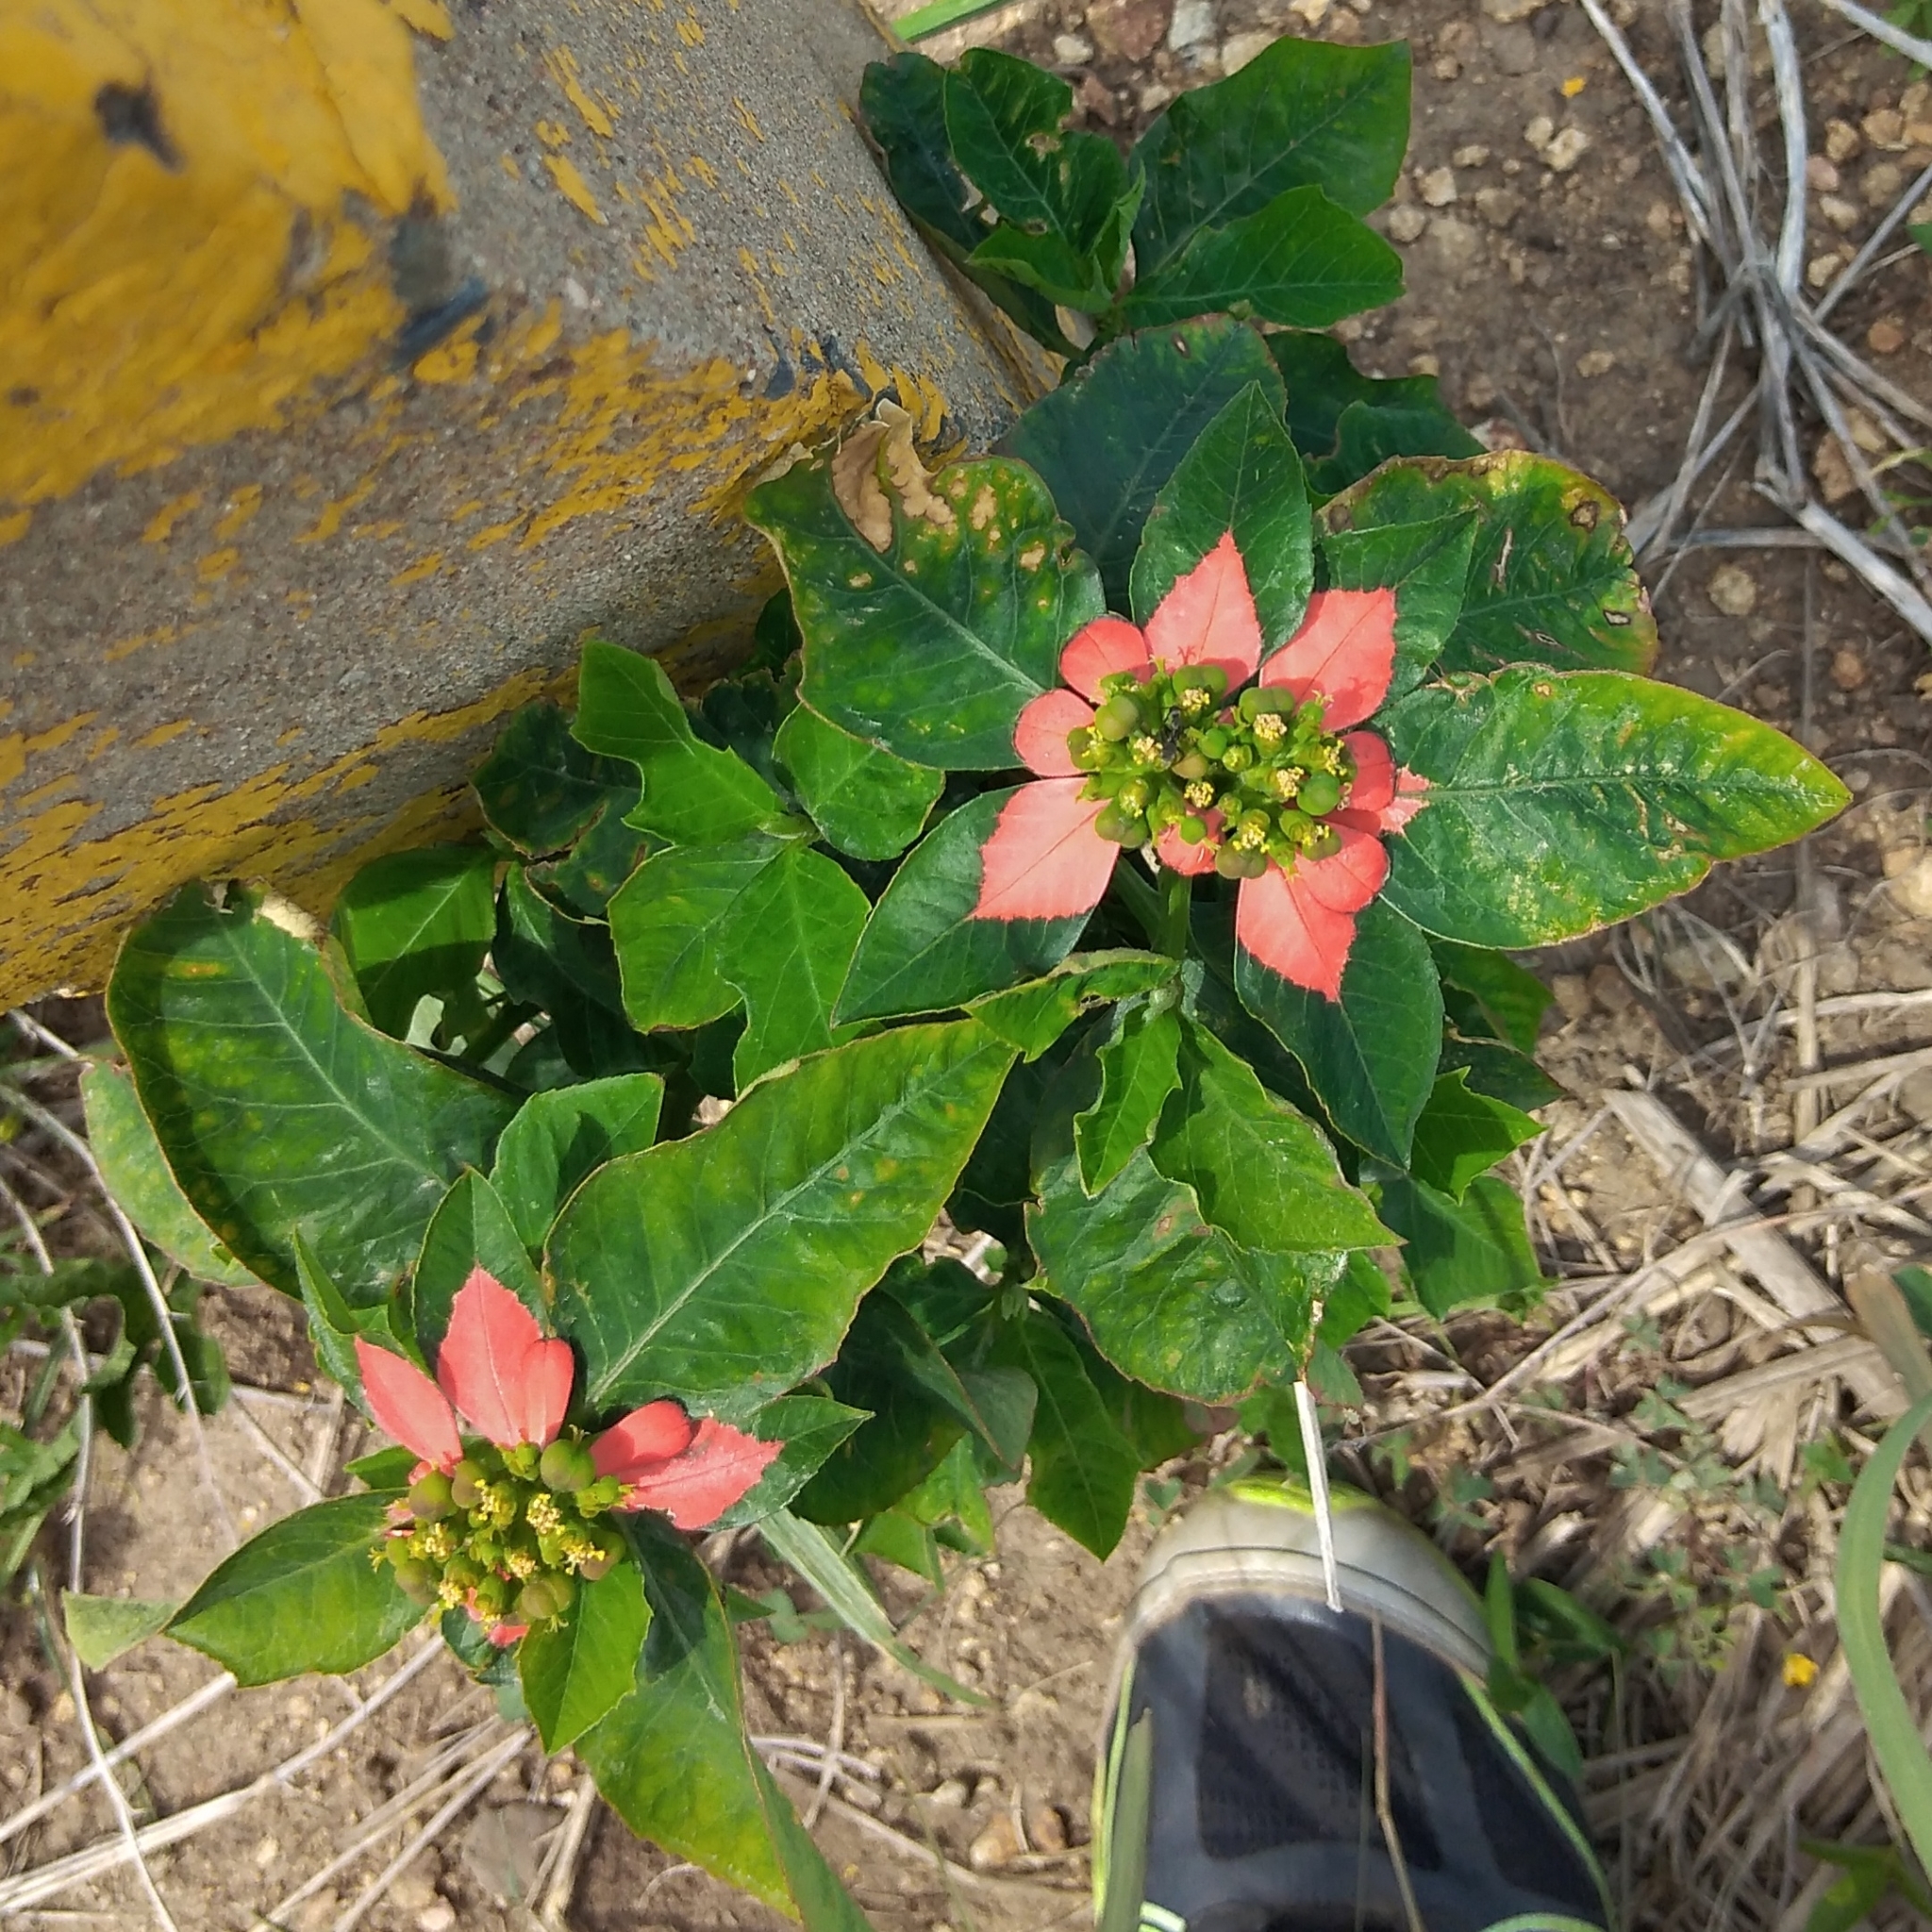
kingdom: Plantae
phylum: Tracheophyta
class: Magnoliopsida
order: Malpighiales
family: Euphorbiaceae
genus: Euphorbia
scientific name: Euphorbia heterophylla
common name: Mexican fireplant
